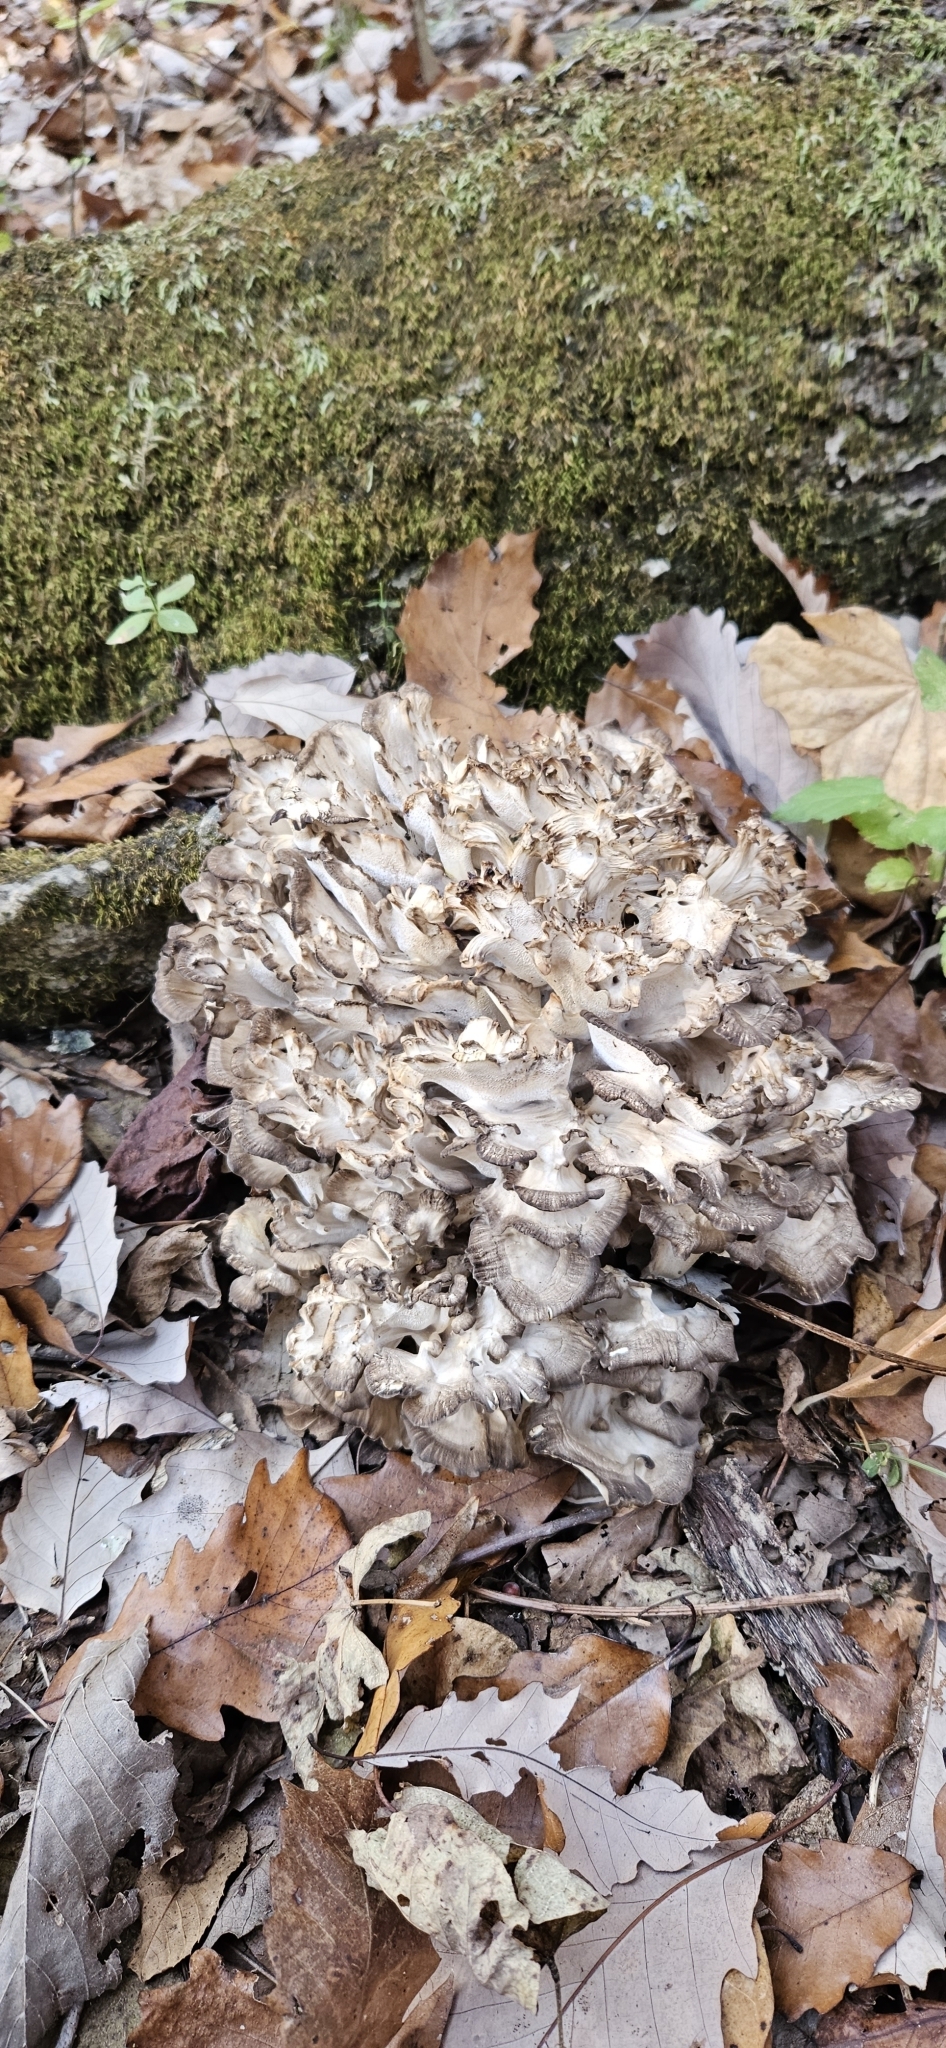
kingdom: Fungi
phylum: Basidiomycota
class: Agaricomycetes
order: Polyporales
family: Grifolaceae
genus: Grifola
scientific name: Grifola frondosa
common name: Hen of the woods
